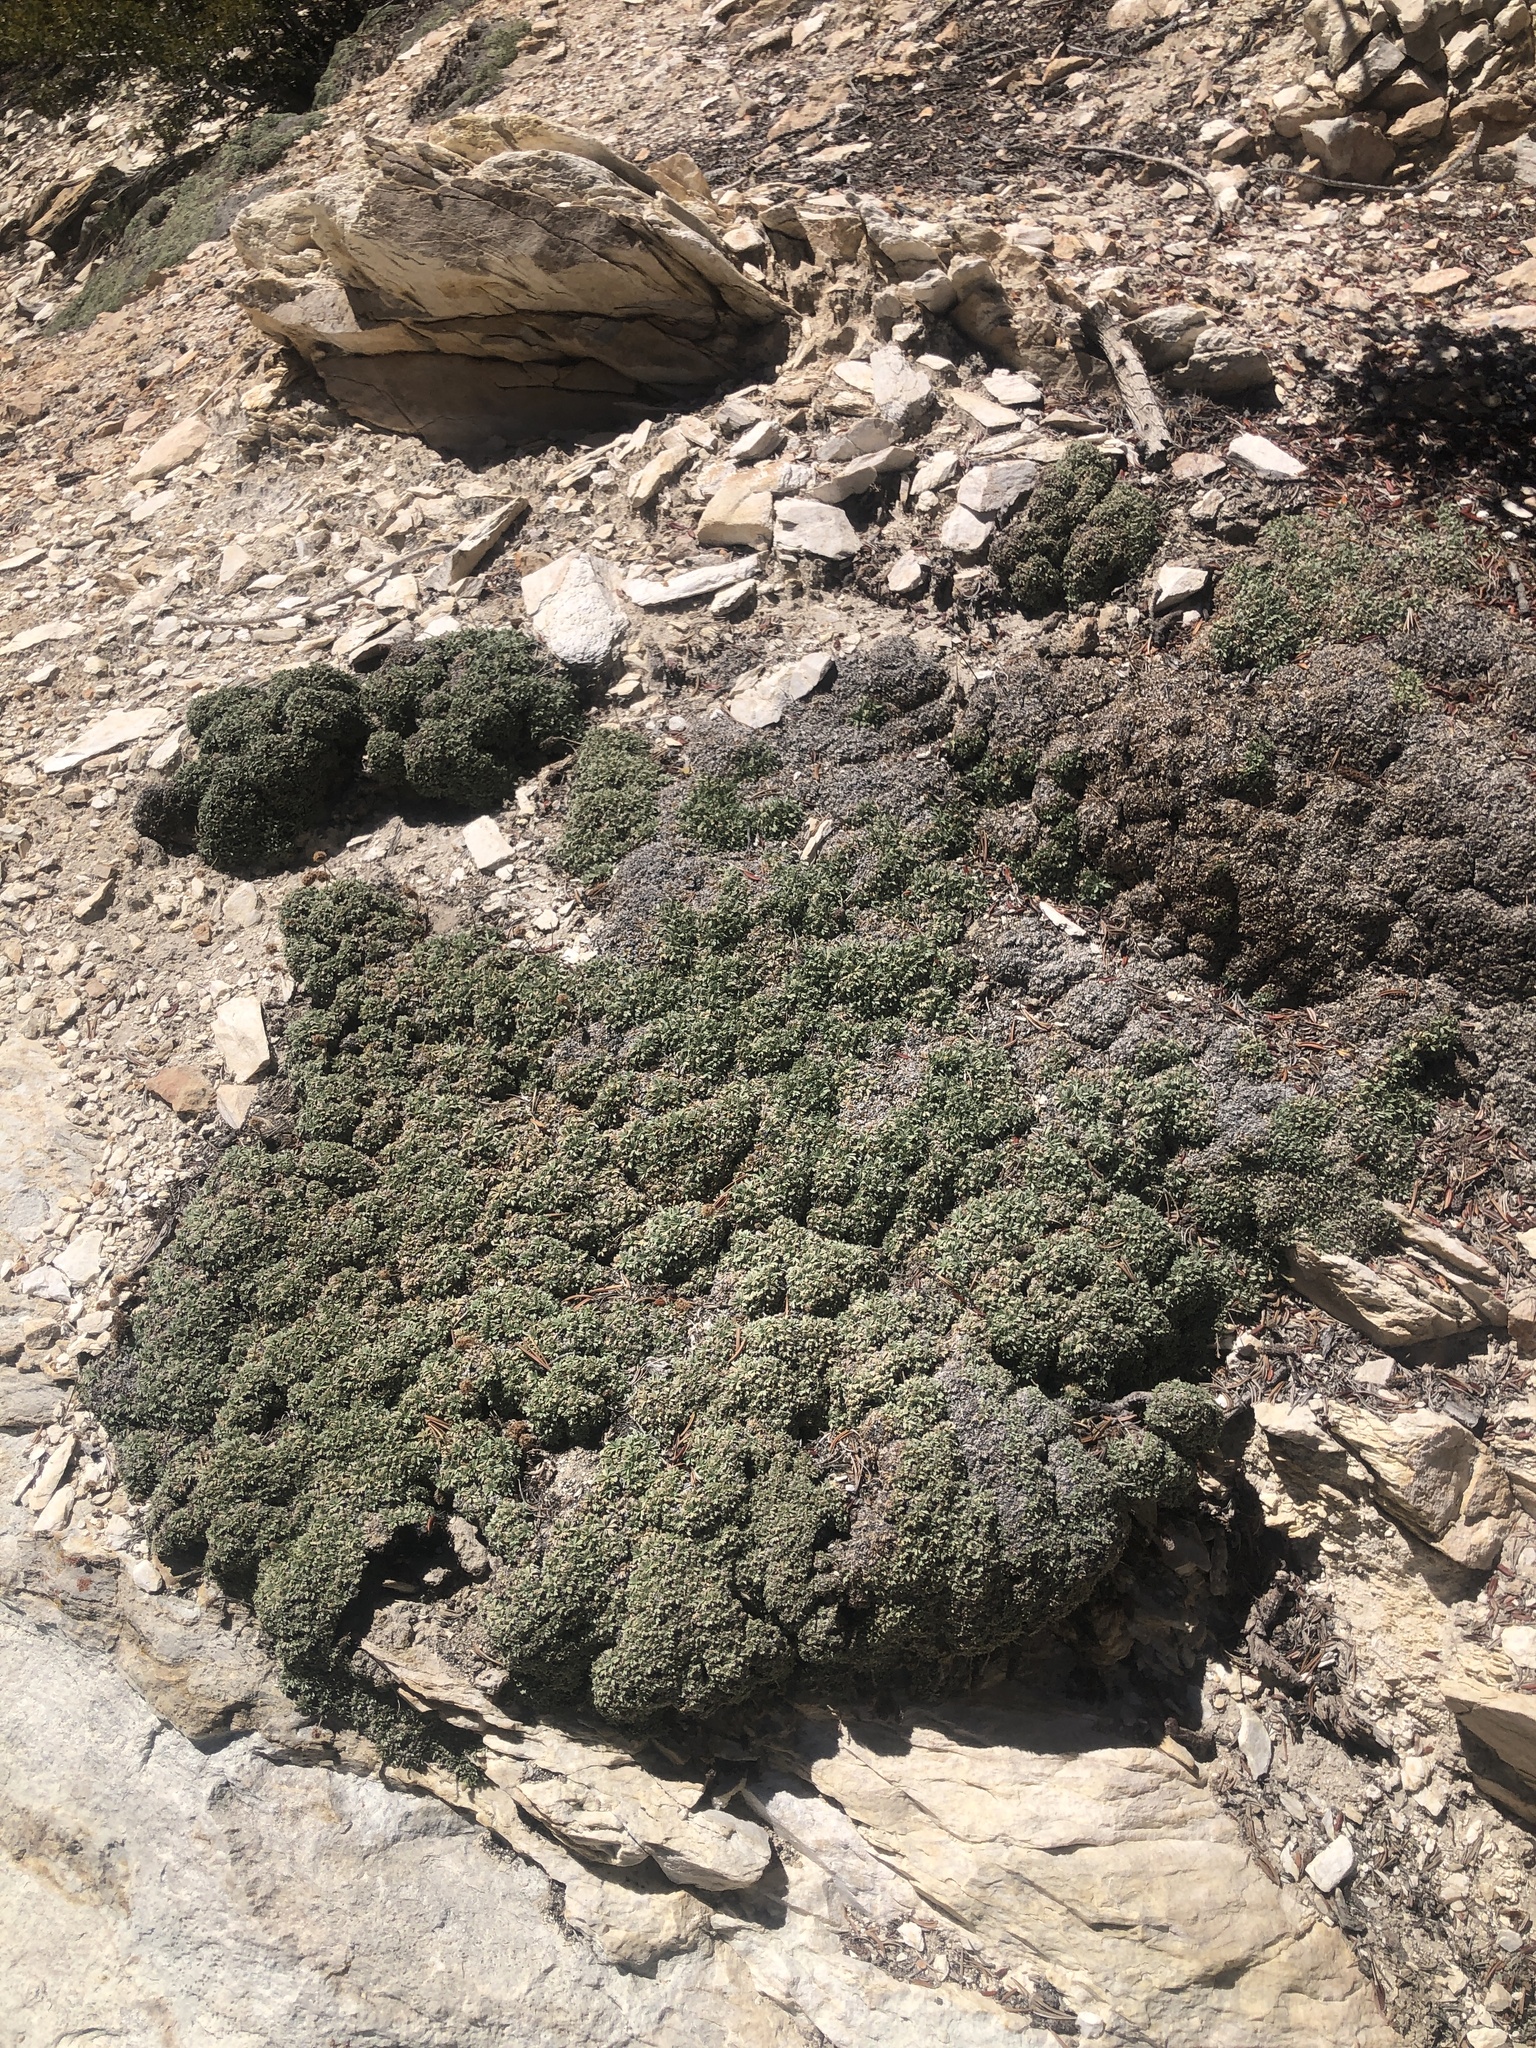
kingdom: Plantae
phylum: Tracheophyta
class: Magnoliopsida
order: Rosales
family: Rosaceae
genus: Petrophytum
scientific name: Petrophytum caespitosum
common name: Mat rockspirea
